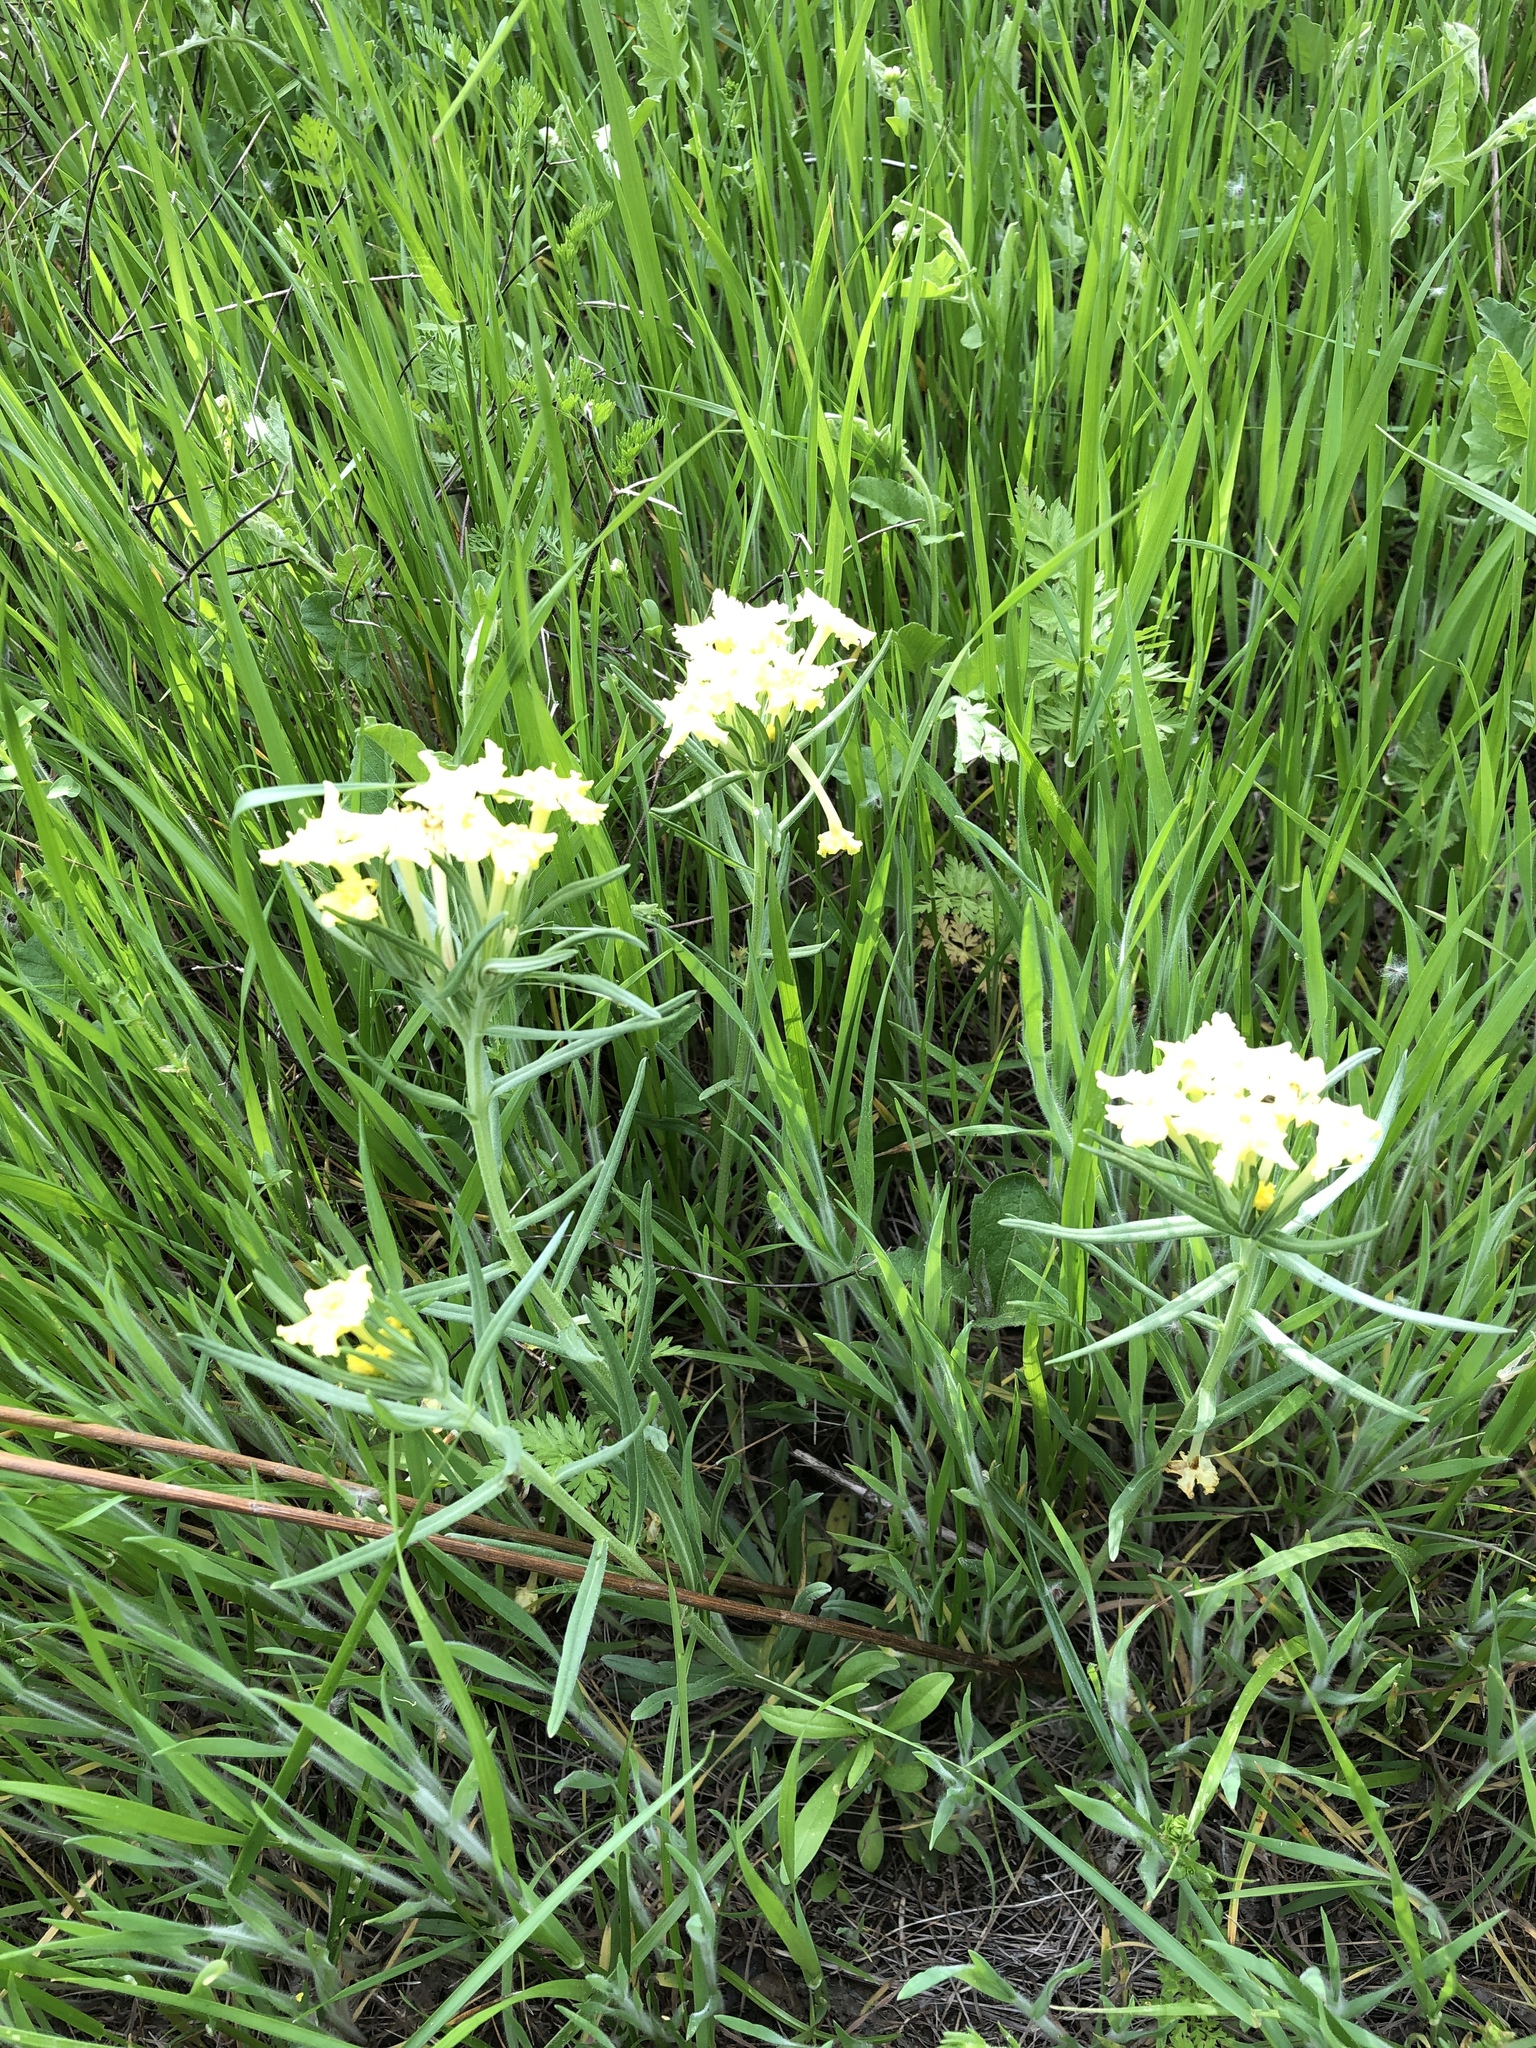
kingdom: Plantae
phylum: Tracheophyta
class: Magnoliopsida
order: Boraginales
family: Boraginaceae
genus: Lithospermum
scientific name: Lithospermum incisum
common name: Fringed gromwell
